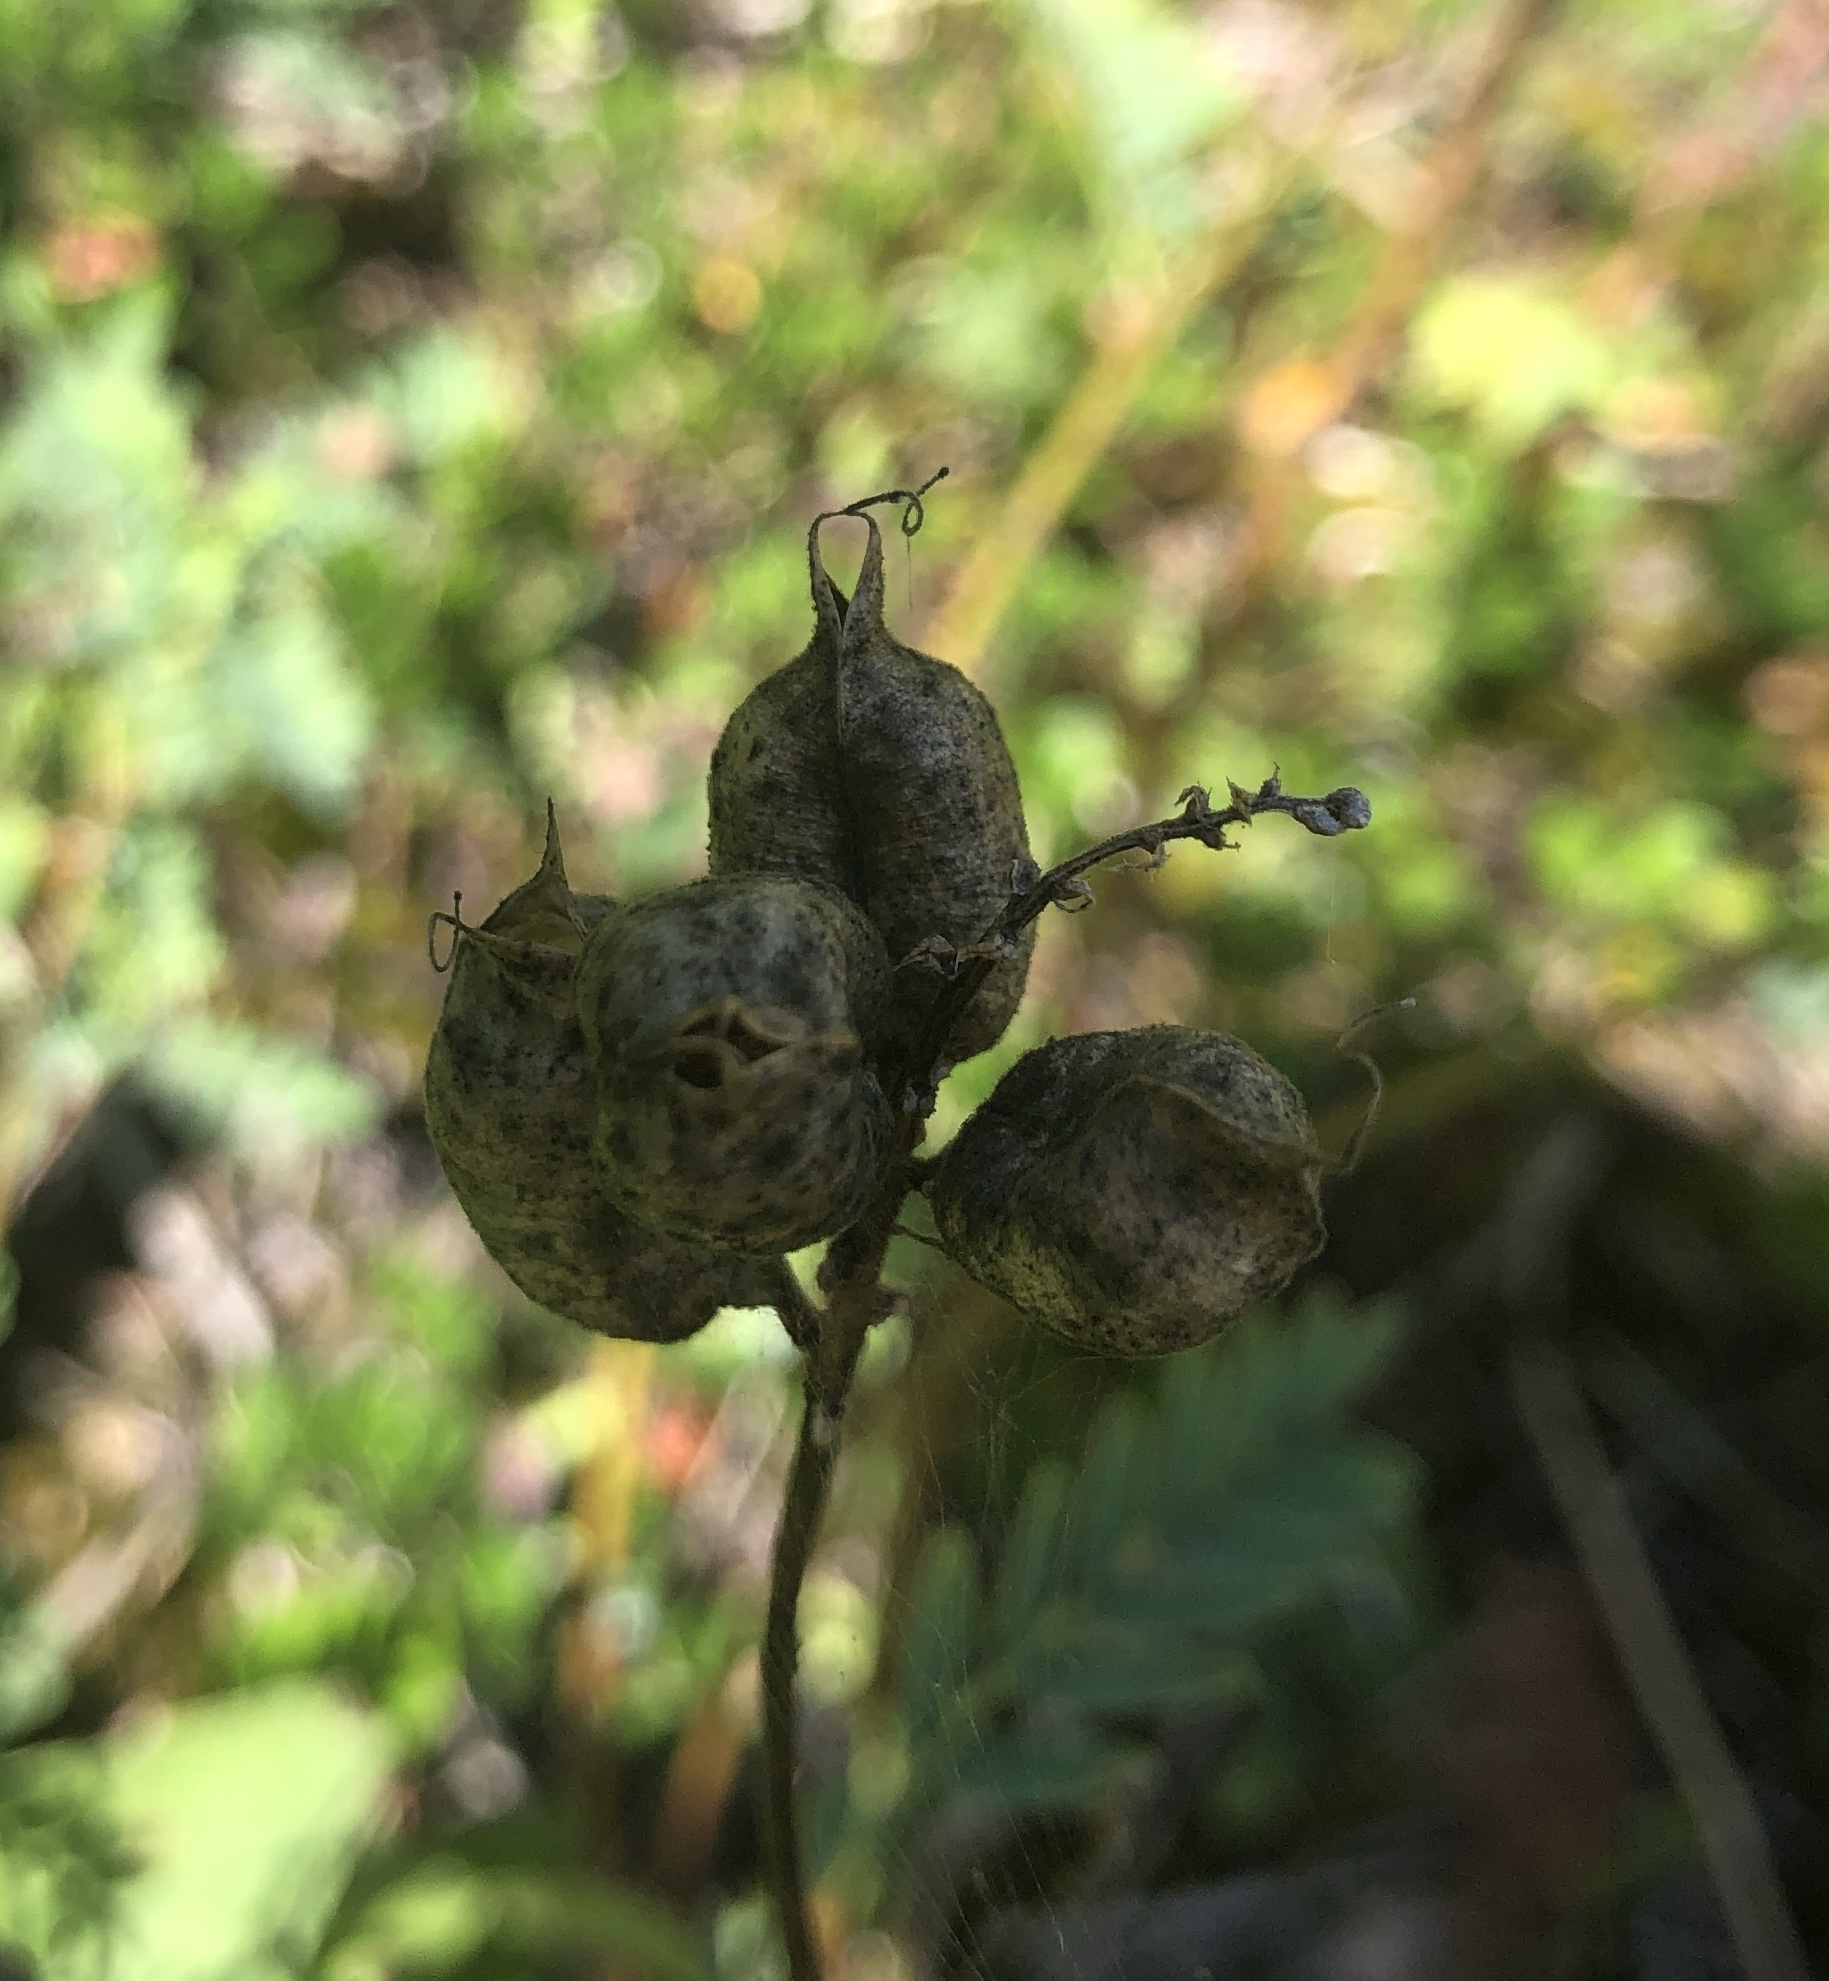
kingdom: Plantae
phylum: Tracheophyta
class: Magnoliopsida
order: Fabales
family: Fabaceae
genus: Astragalus
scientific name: Astragalus neglectus
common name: Cooper's milk-vetch
